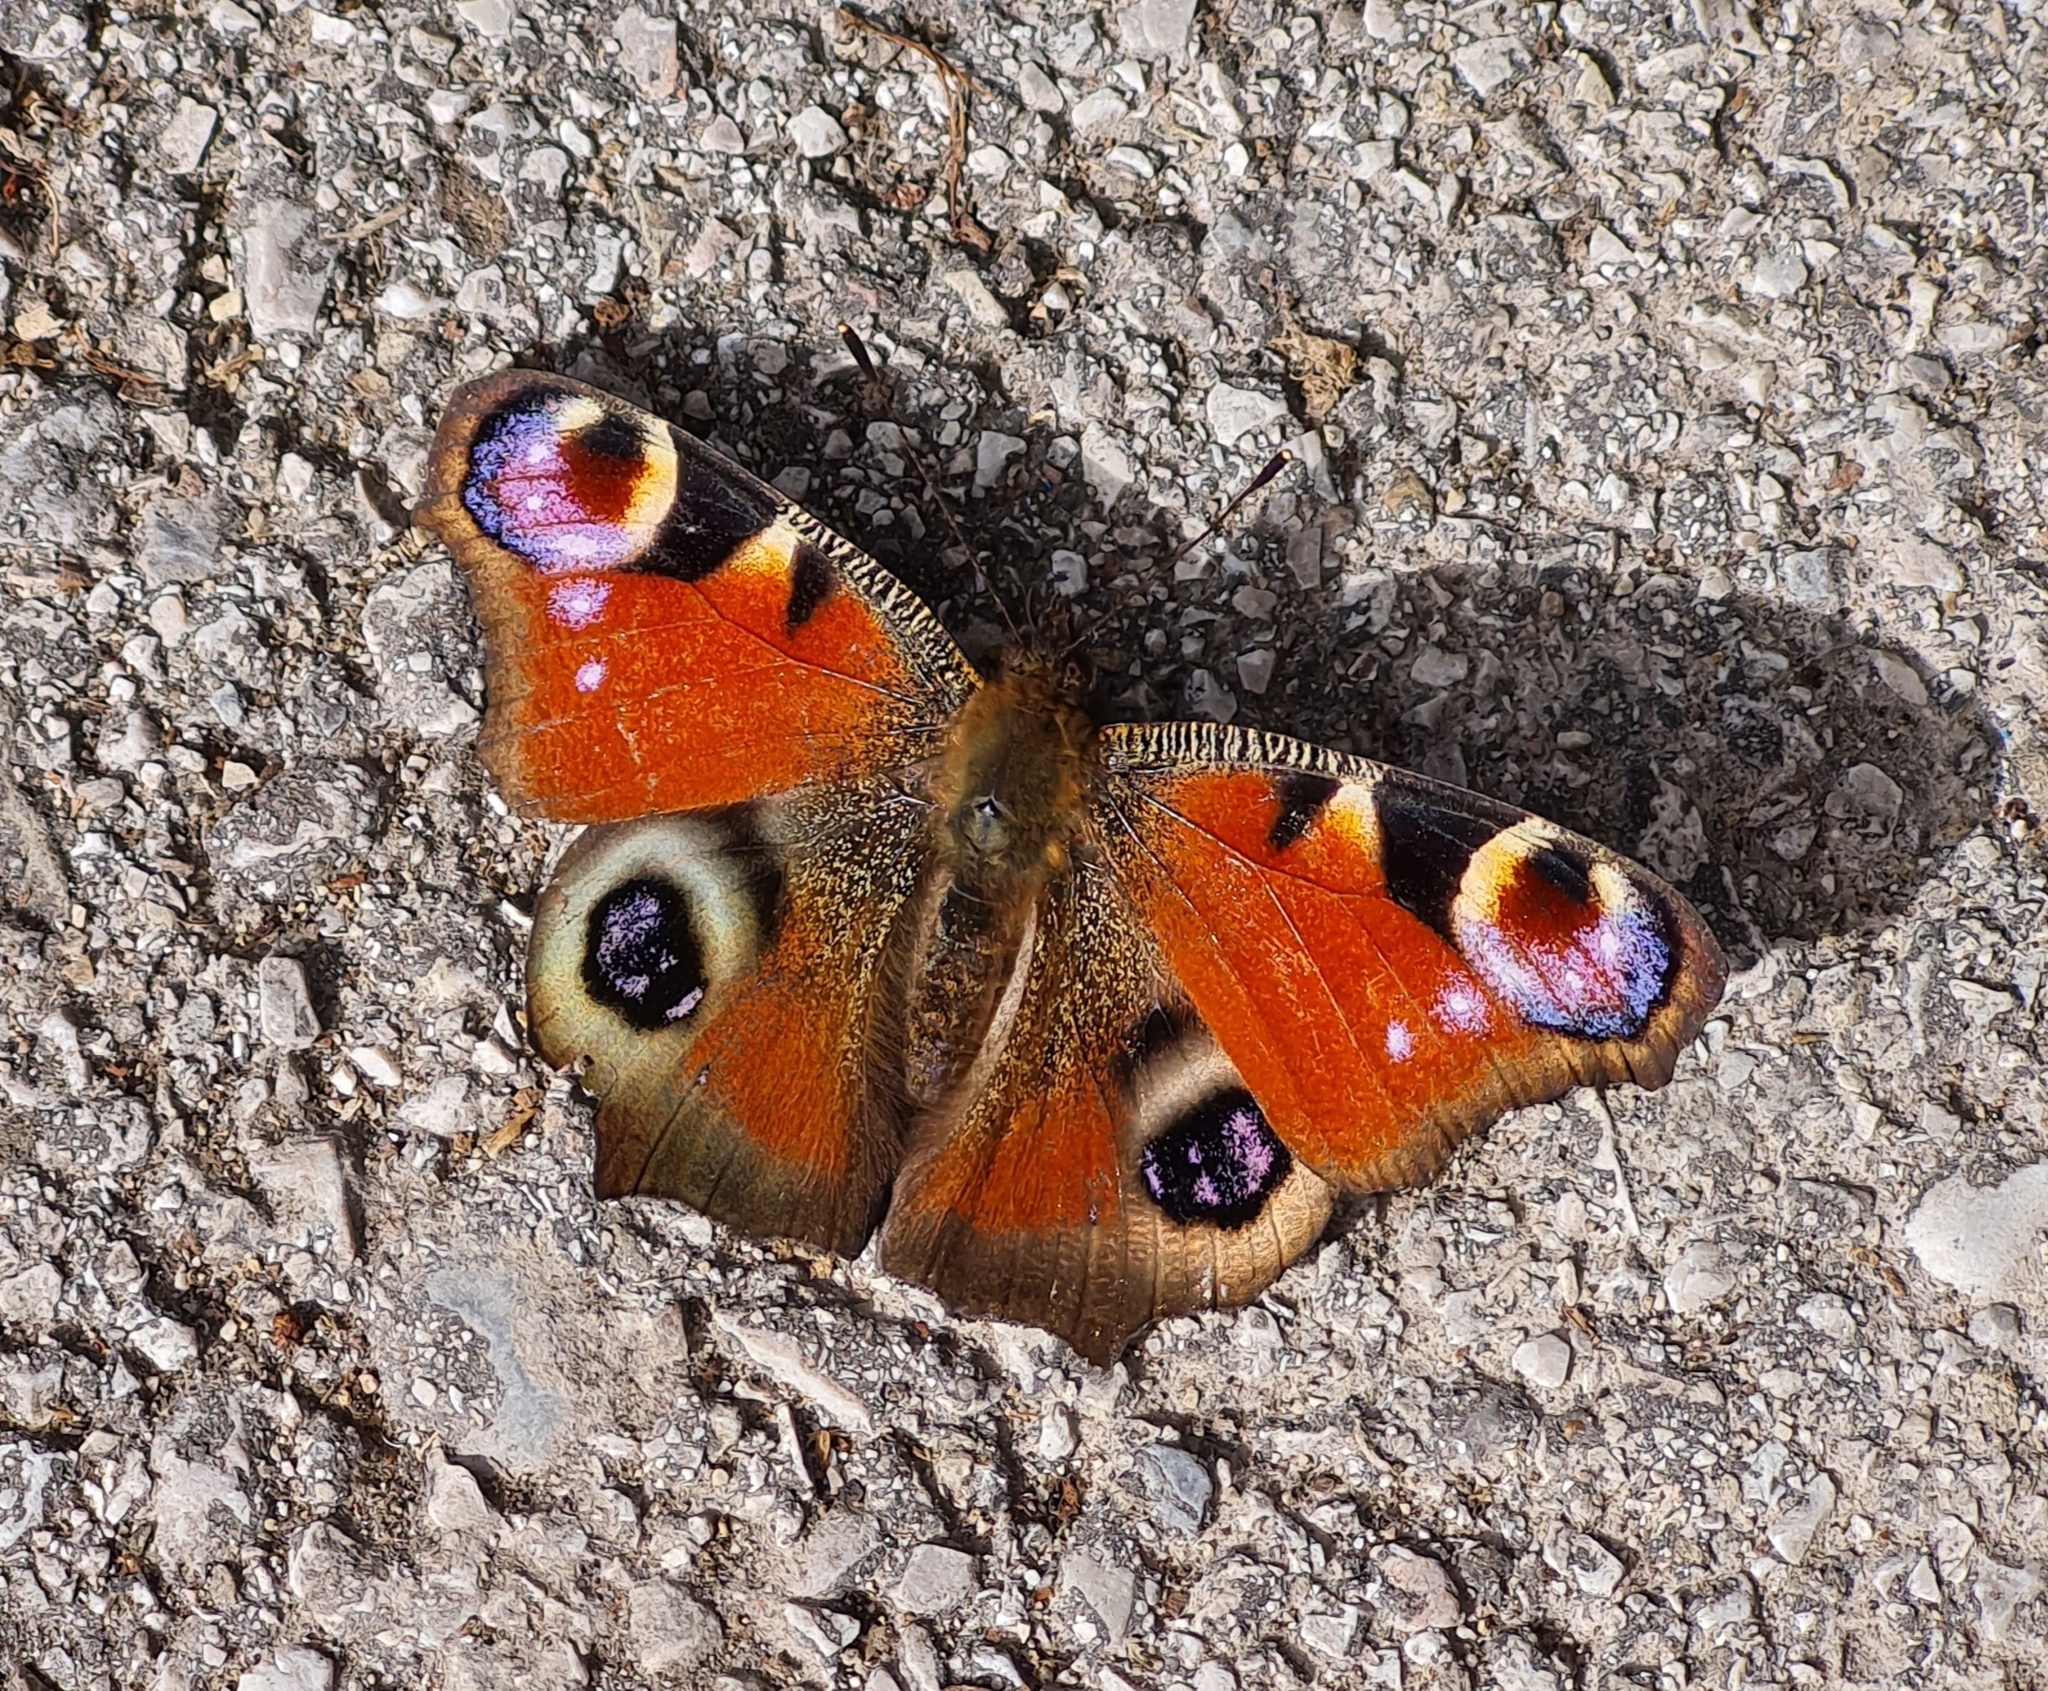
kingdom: Animalia
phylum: Arthropoda
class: Insecta
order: Lepidoptera
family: Nymphalidae
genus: Aglais
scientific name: Aglais io
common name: Peacock
